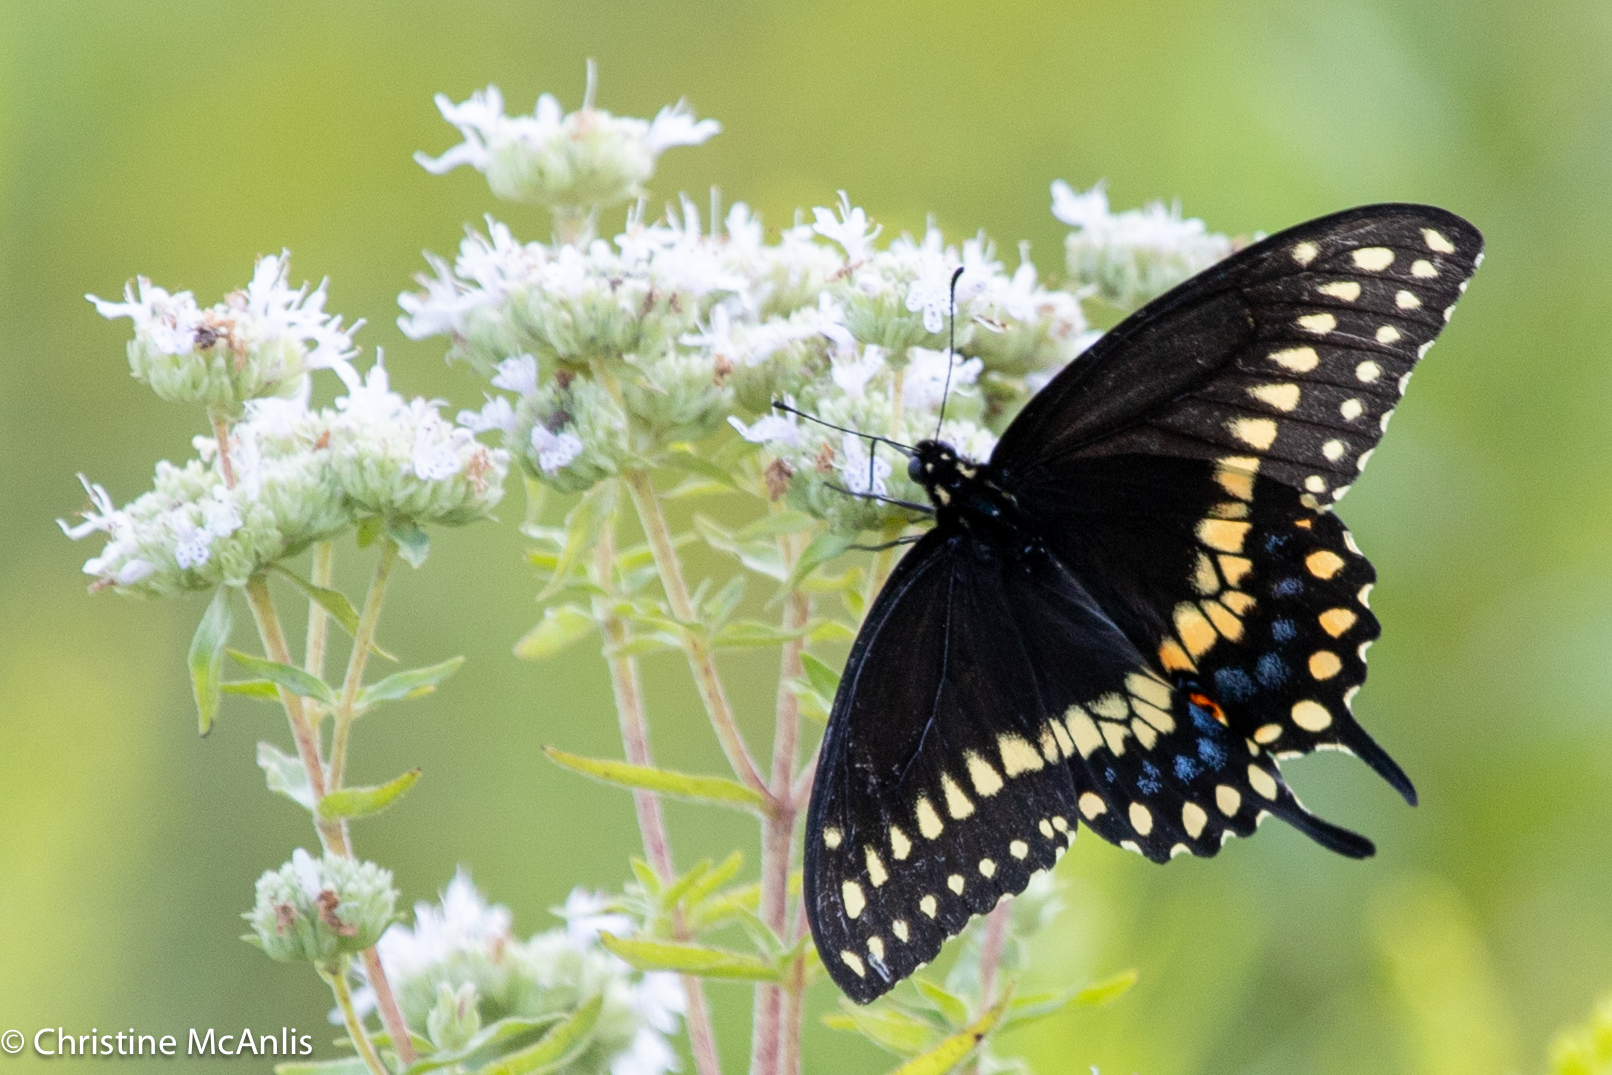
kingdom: Animalia
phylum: Arthropoda
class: Insecta
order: Lepidoptera
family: Papilionidae
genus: Papilio
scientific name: Papilio polyxenes
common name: Black swallowtail
